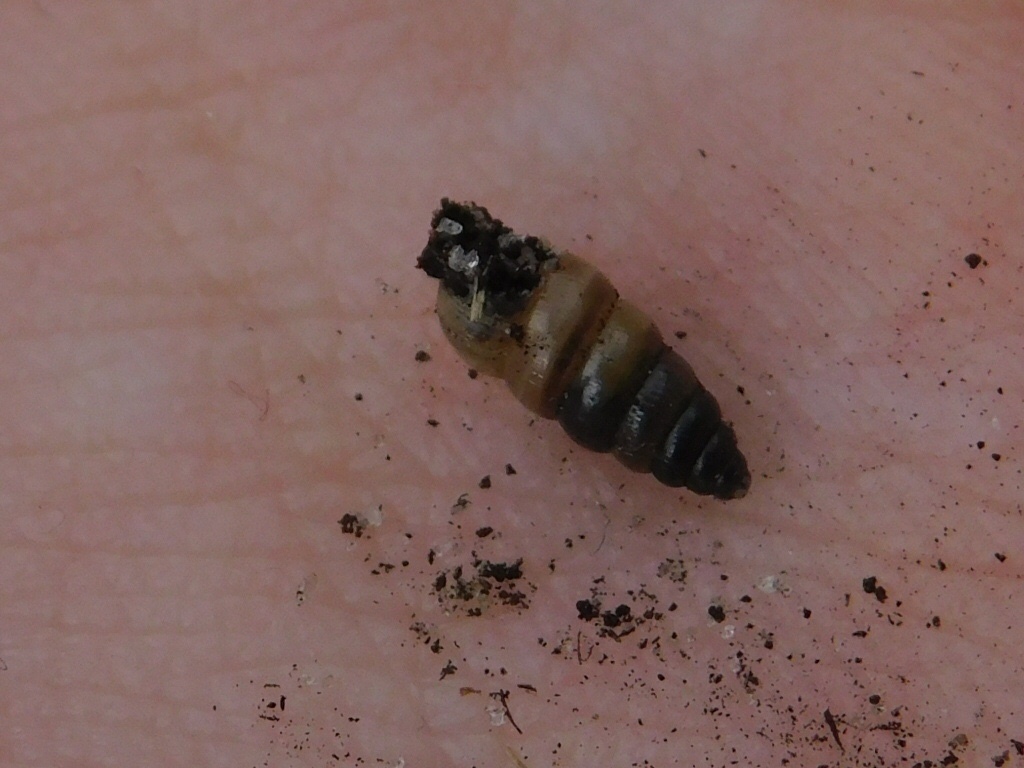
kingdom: Animalia
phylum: Mollusca
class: Gastropoda
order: Stylommatophora
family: Achatinidae
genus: Beckianum
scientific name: Beckianum beckianum
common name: Land snail
